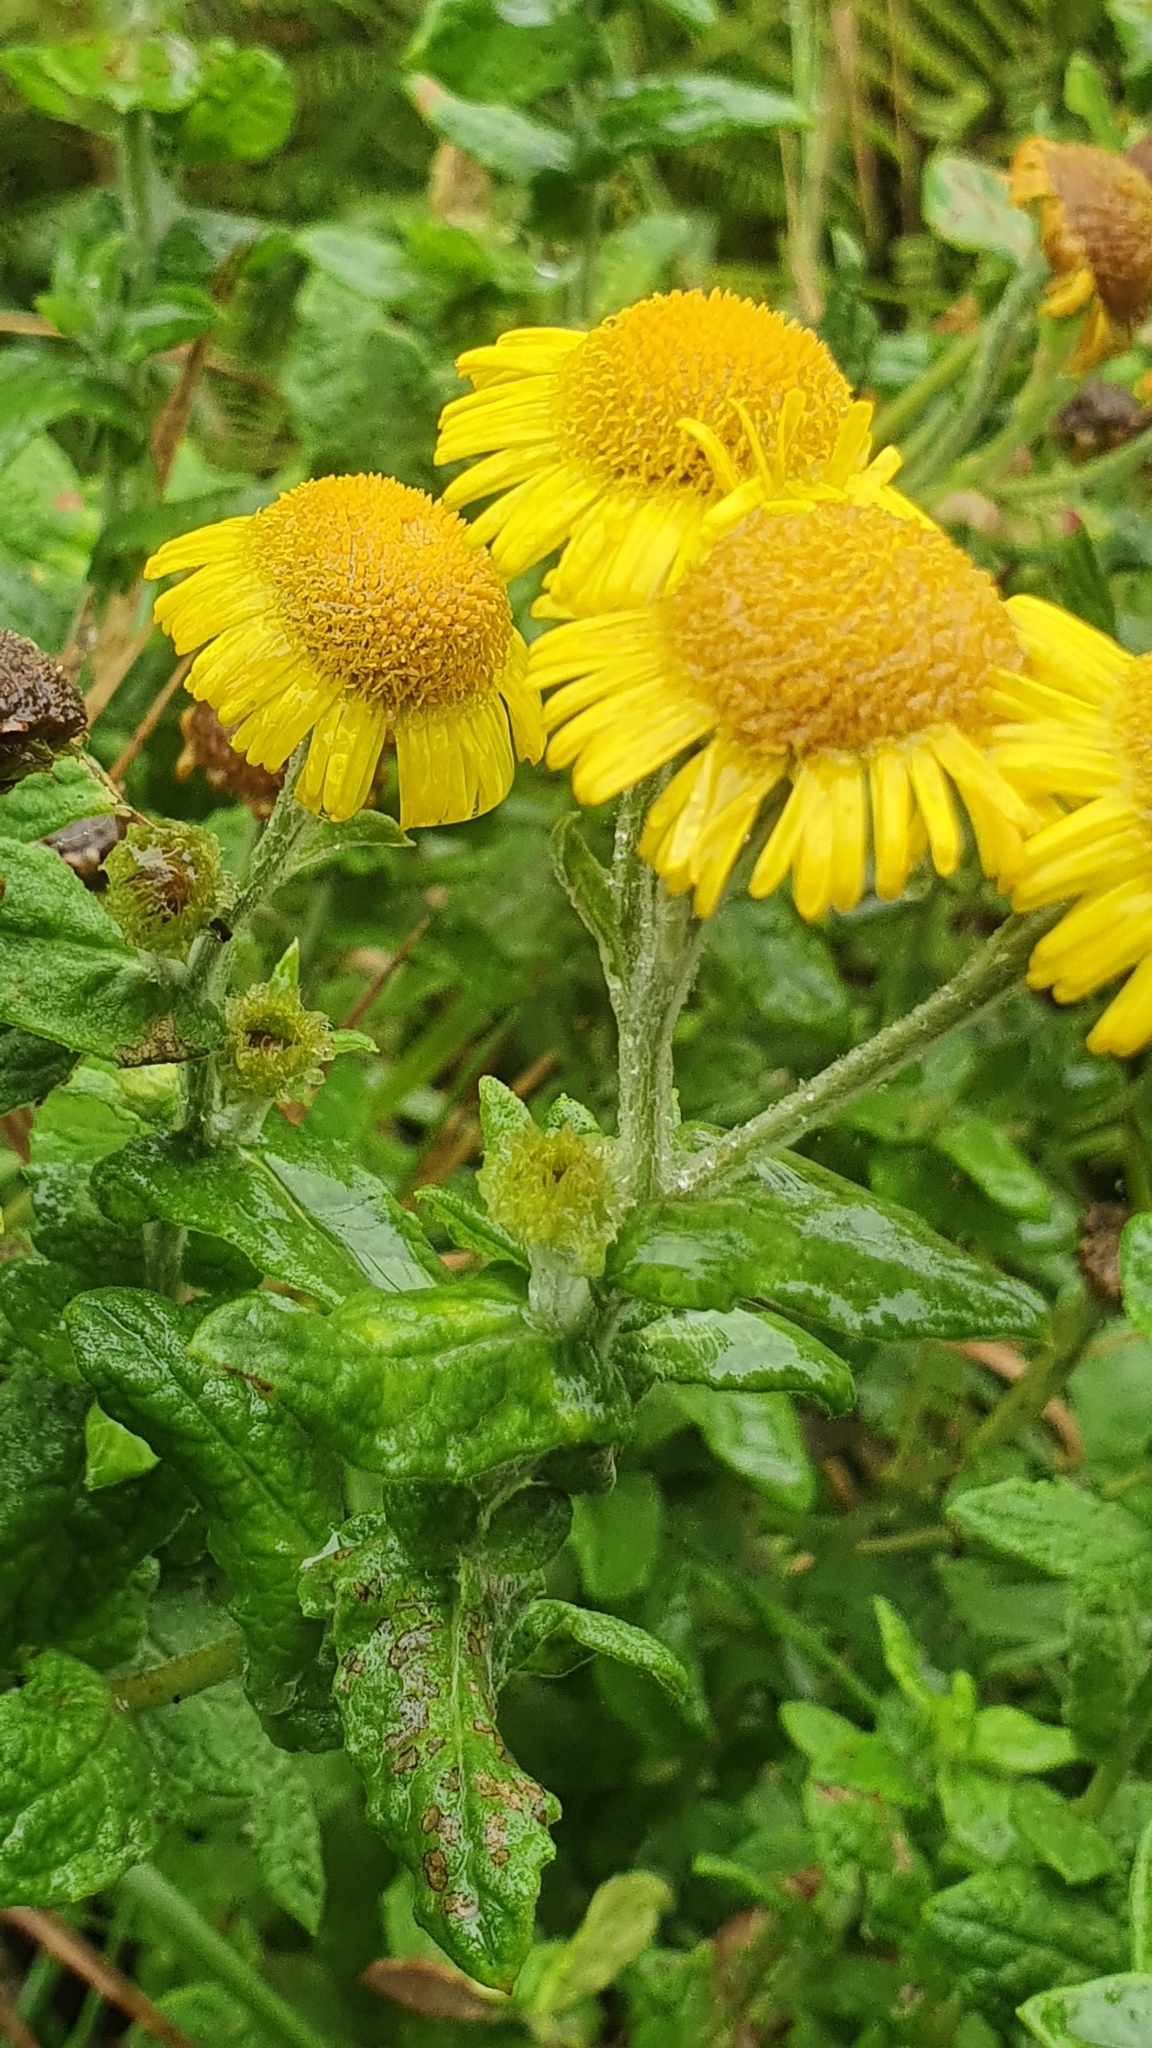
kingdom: Plantae
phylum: Tracheophyta
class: Magnoliopsida
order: Asterales
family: Asteraceae
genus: Pulicaria
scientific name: Pulicaria dysenterica
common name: Common fleabane
